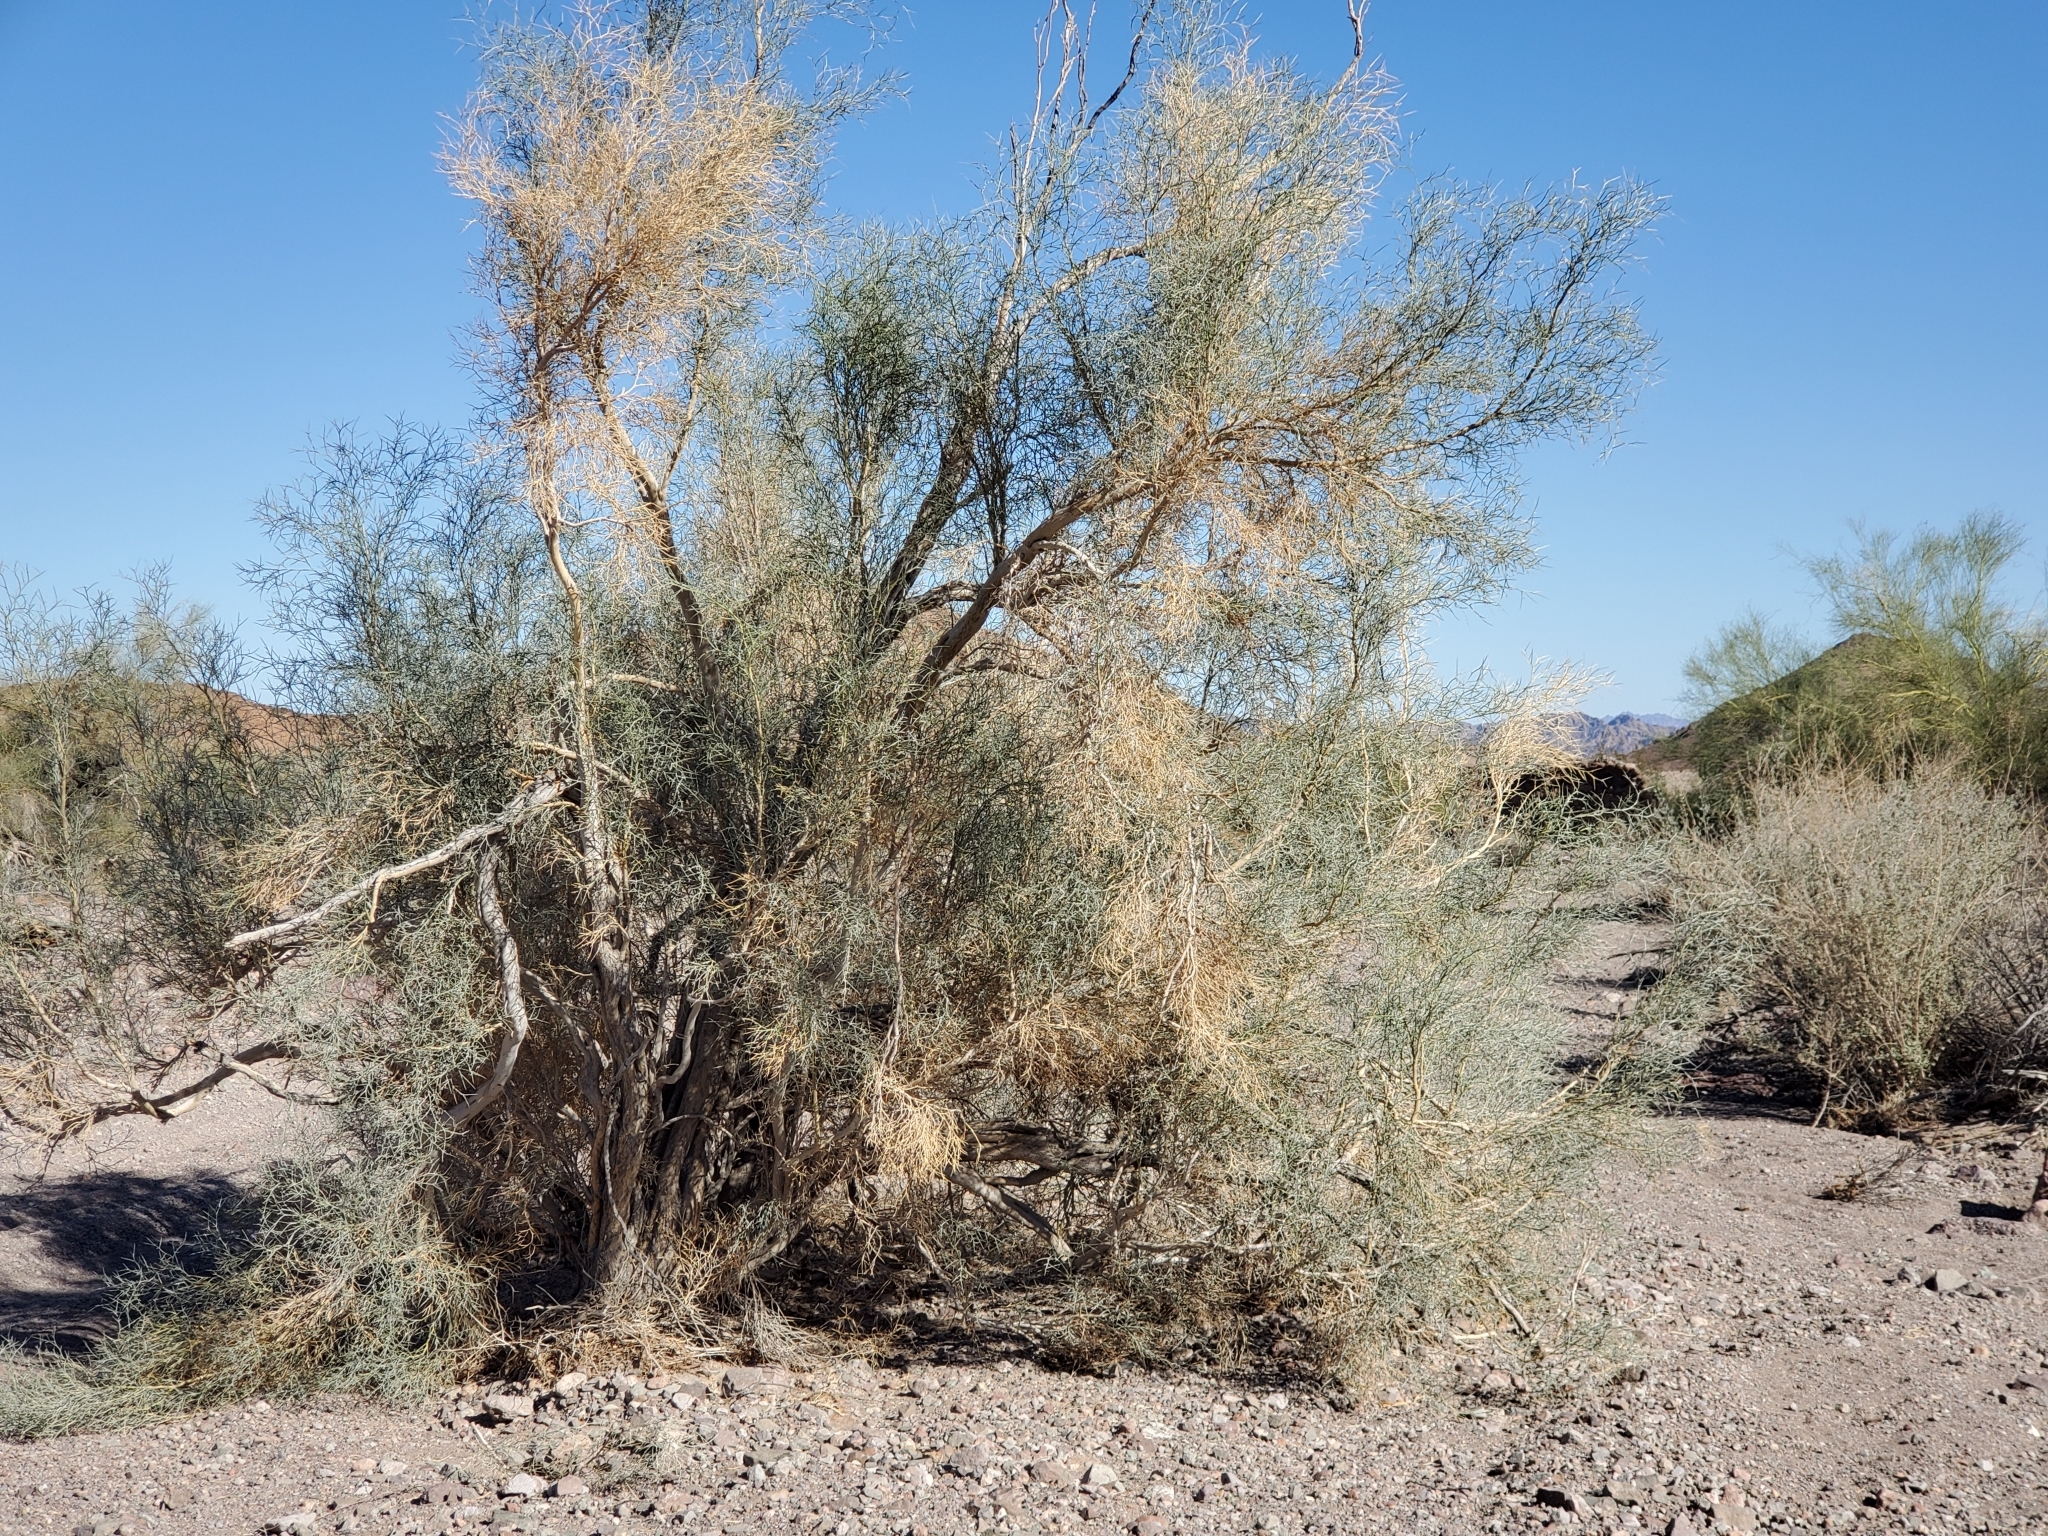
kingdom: Plantae
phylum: Tracheophyta
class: Magnoliopsida
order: Fabales
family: Fabaceae
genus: Psorothamnus
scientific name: Psorothamnus spinosus
